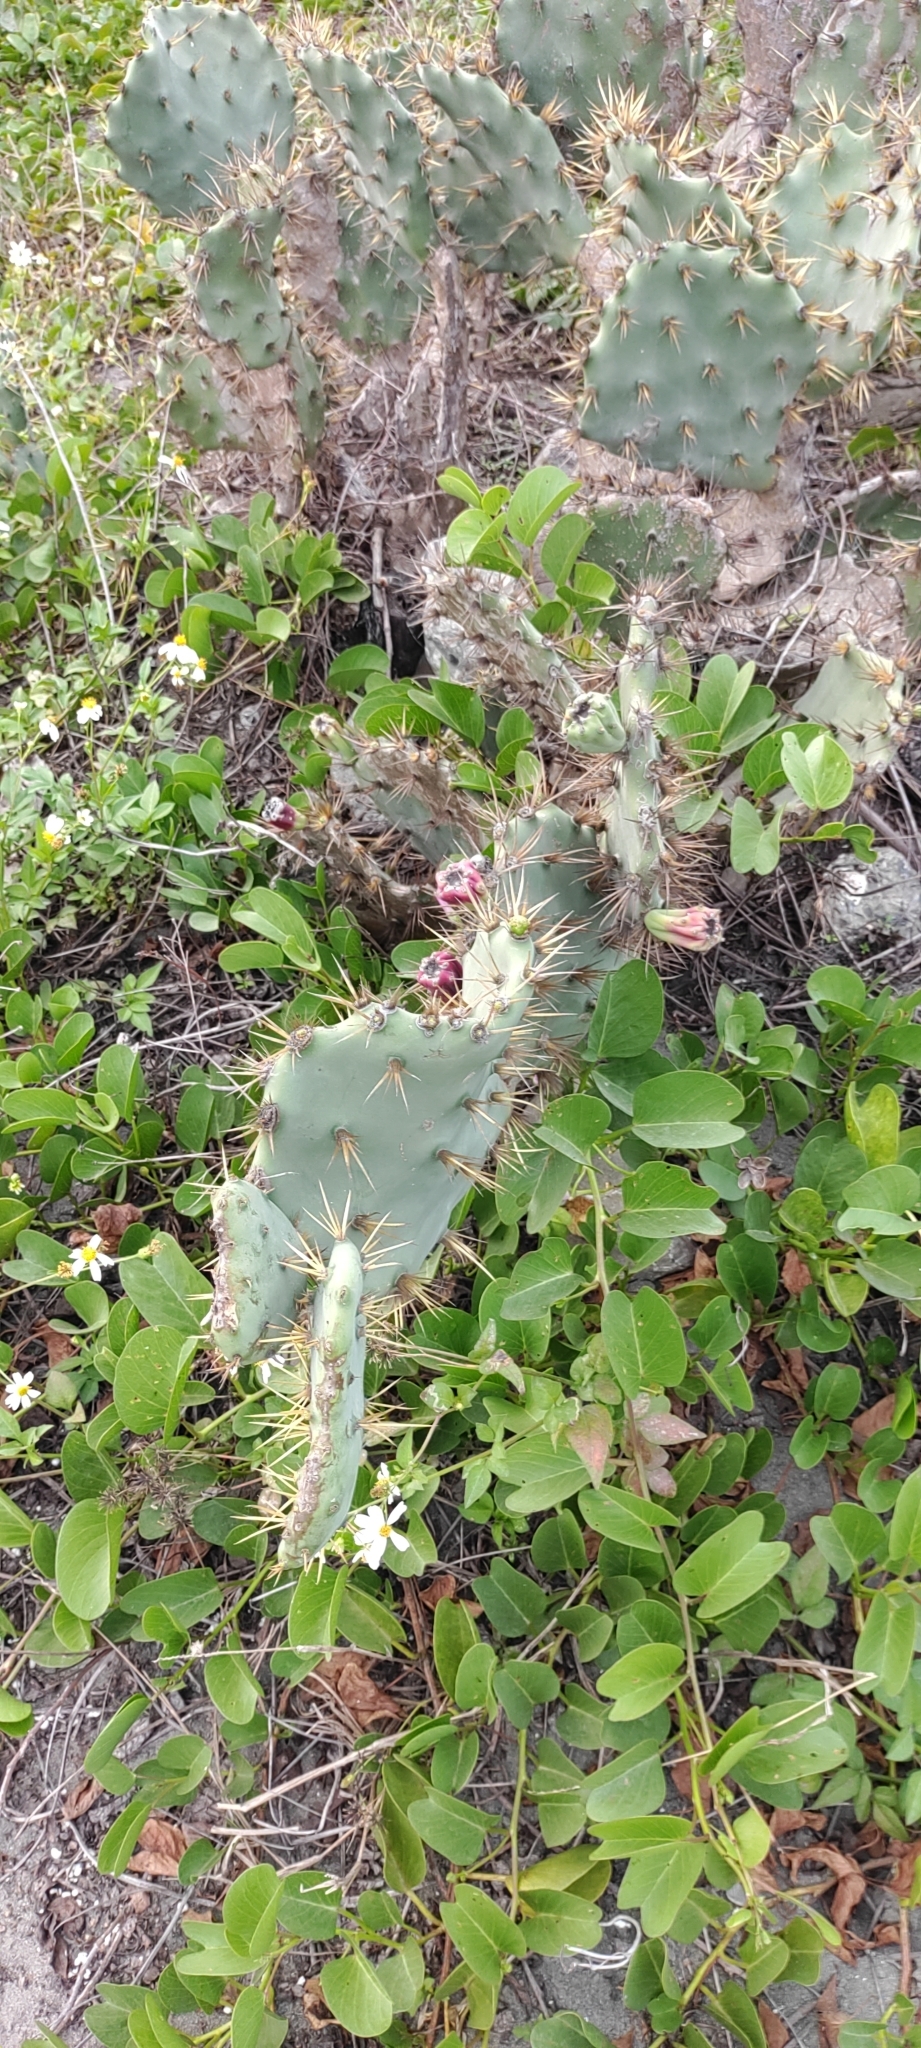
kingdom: Plantae
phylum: Tracheophyta
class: Magnoliopsida
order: Caryophyllales
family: Cactaceae
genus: Opuntia
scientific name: Opuntia dillenii
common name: Sour prickle
